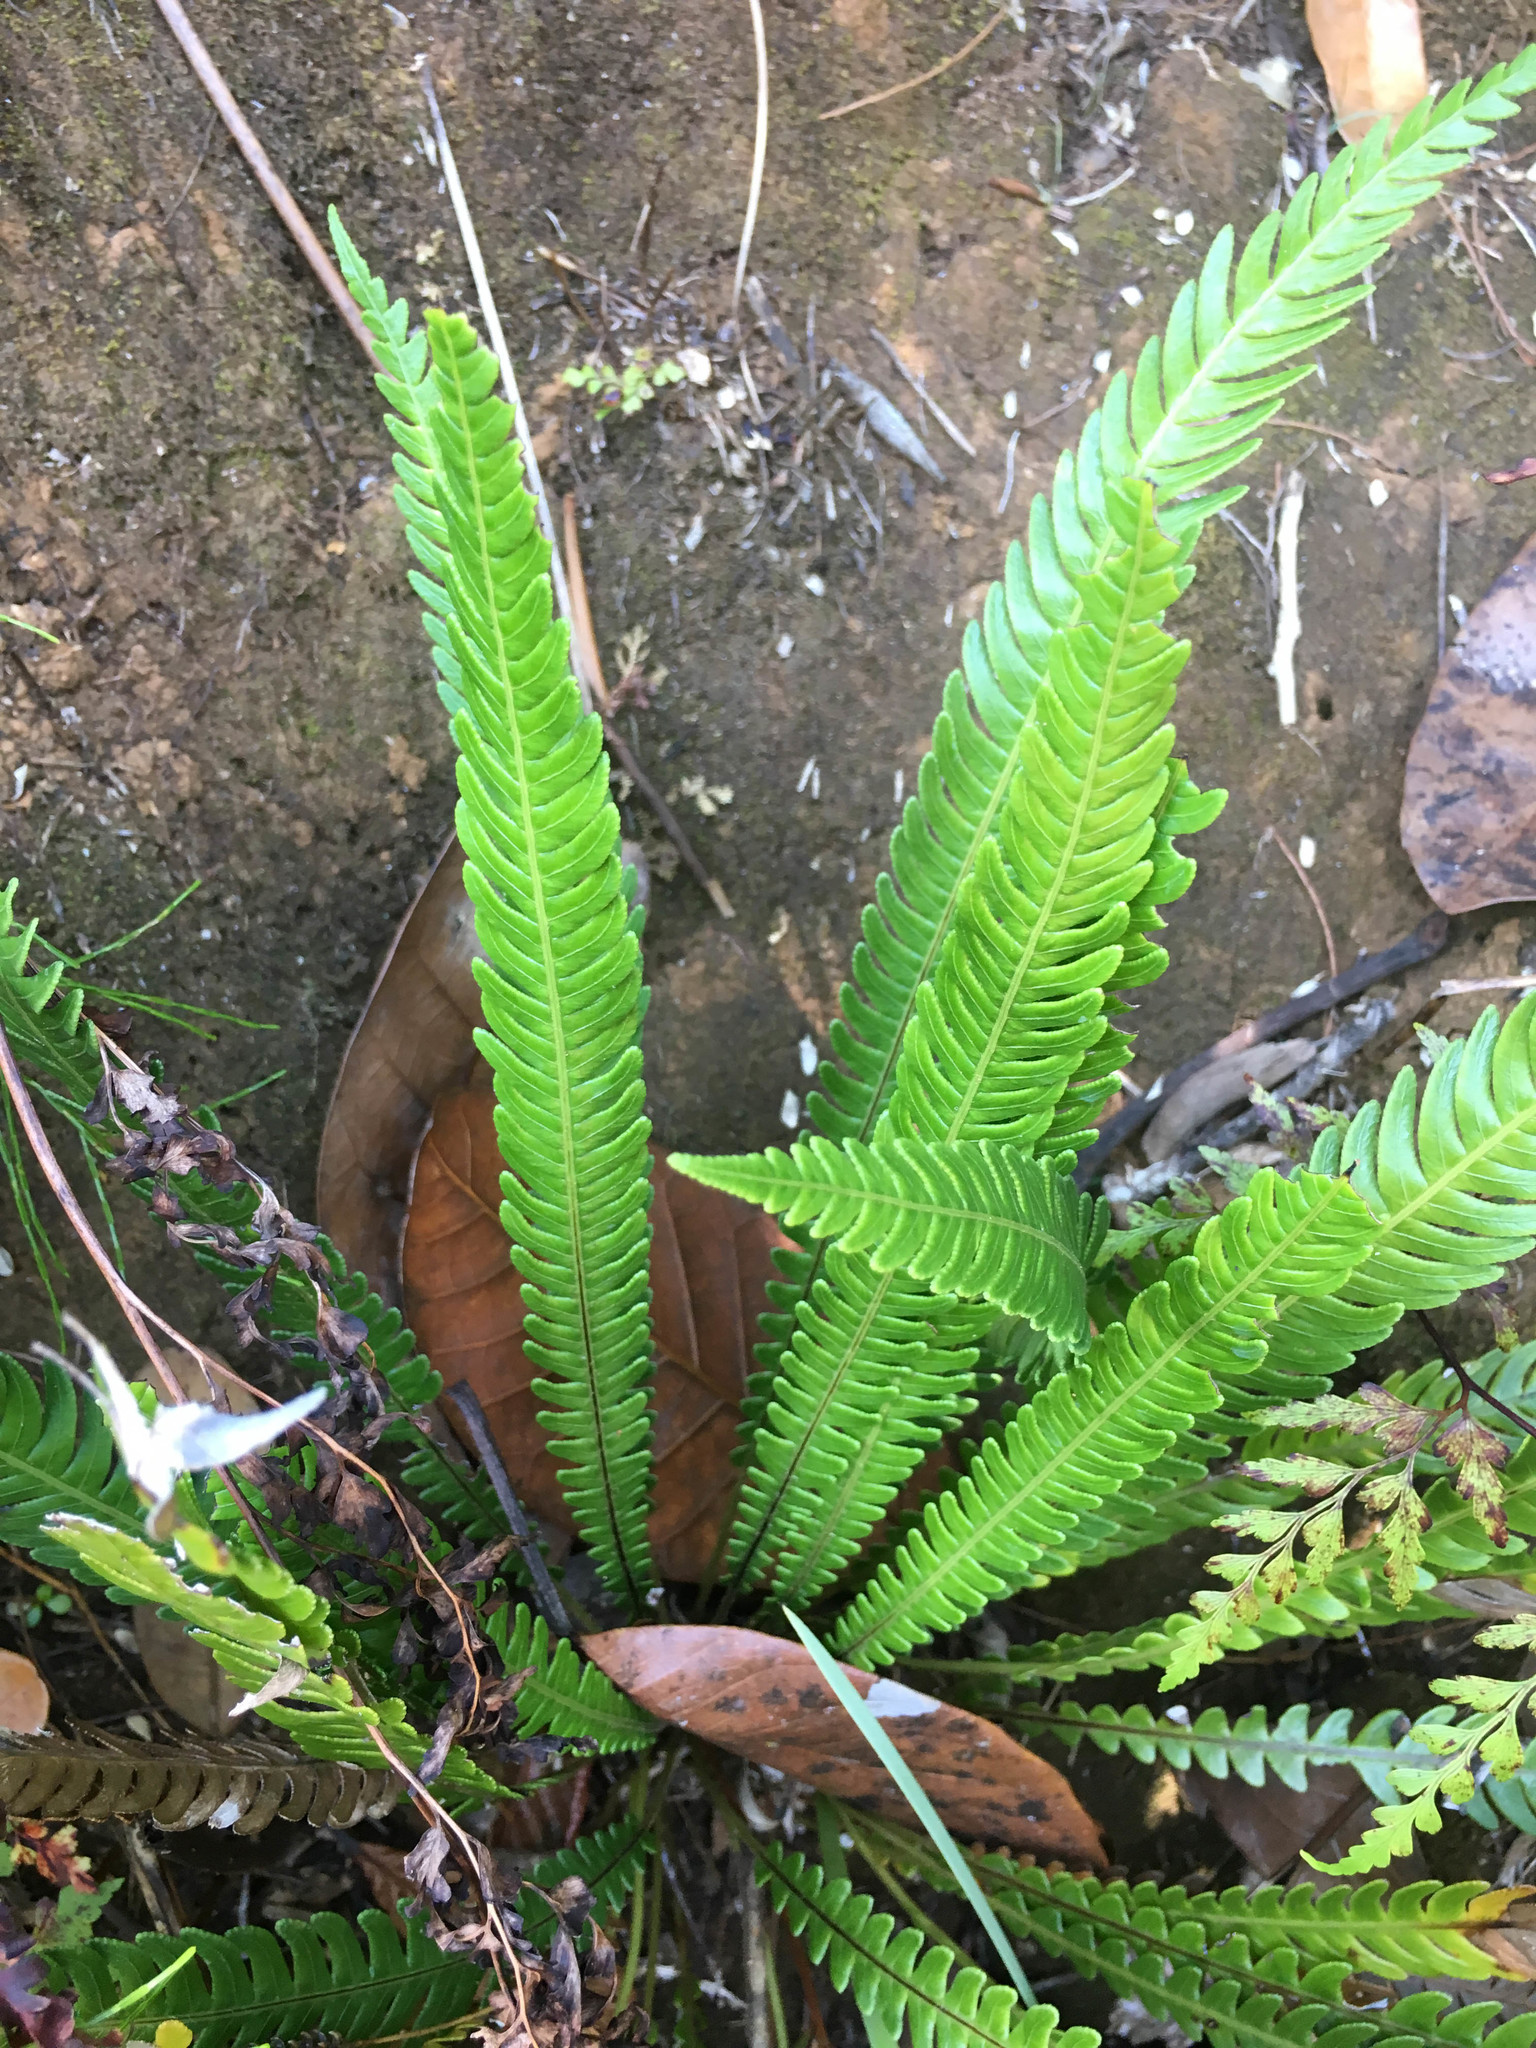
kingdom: Plantae
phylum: Tracheophyta
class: Polypodiopsida
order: Polypodiales
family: Blechnaceae
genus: Oceaniopteris
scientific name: Oceaniopteris obtusata
